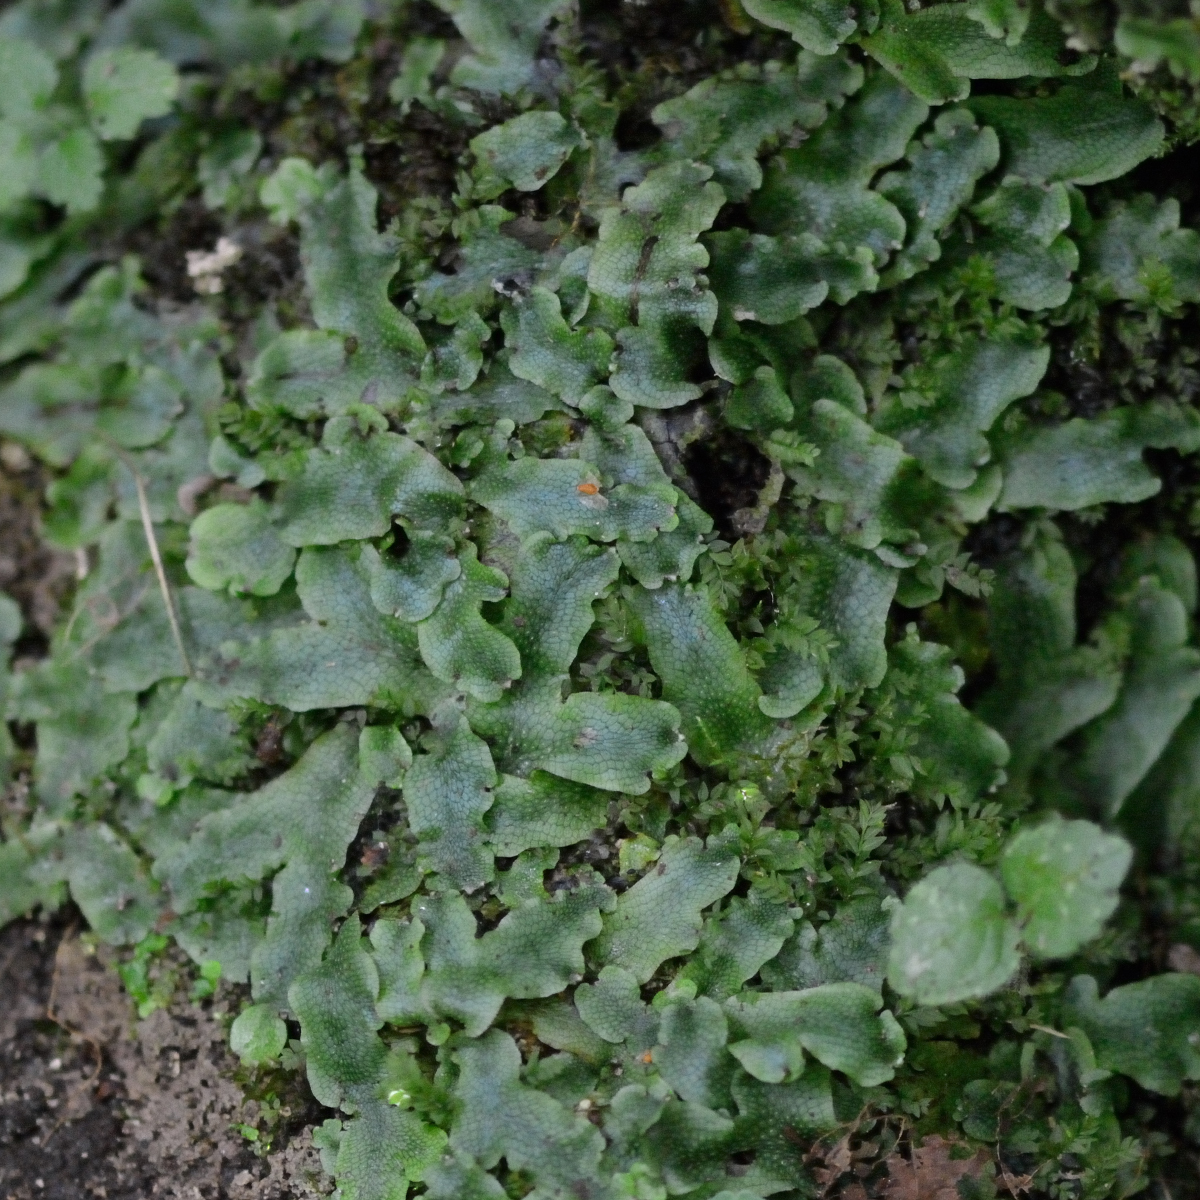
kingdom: Plantae
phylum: Marchantiophyta
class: Marchantiopsida
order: Marchantiales
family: Conocephalaceae
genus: Conocephalum
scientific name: Conocephalum salebrosum
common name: Cat-tongue liverwort
